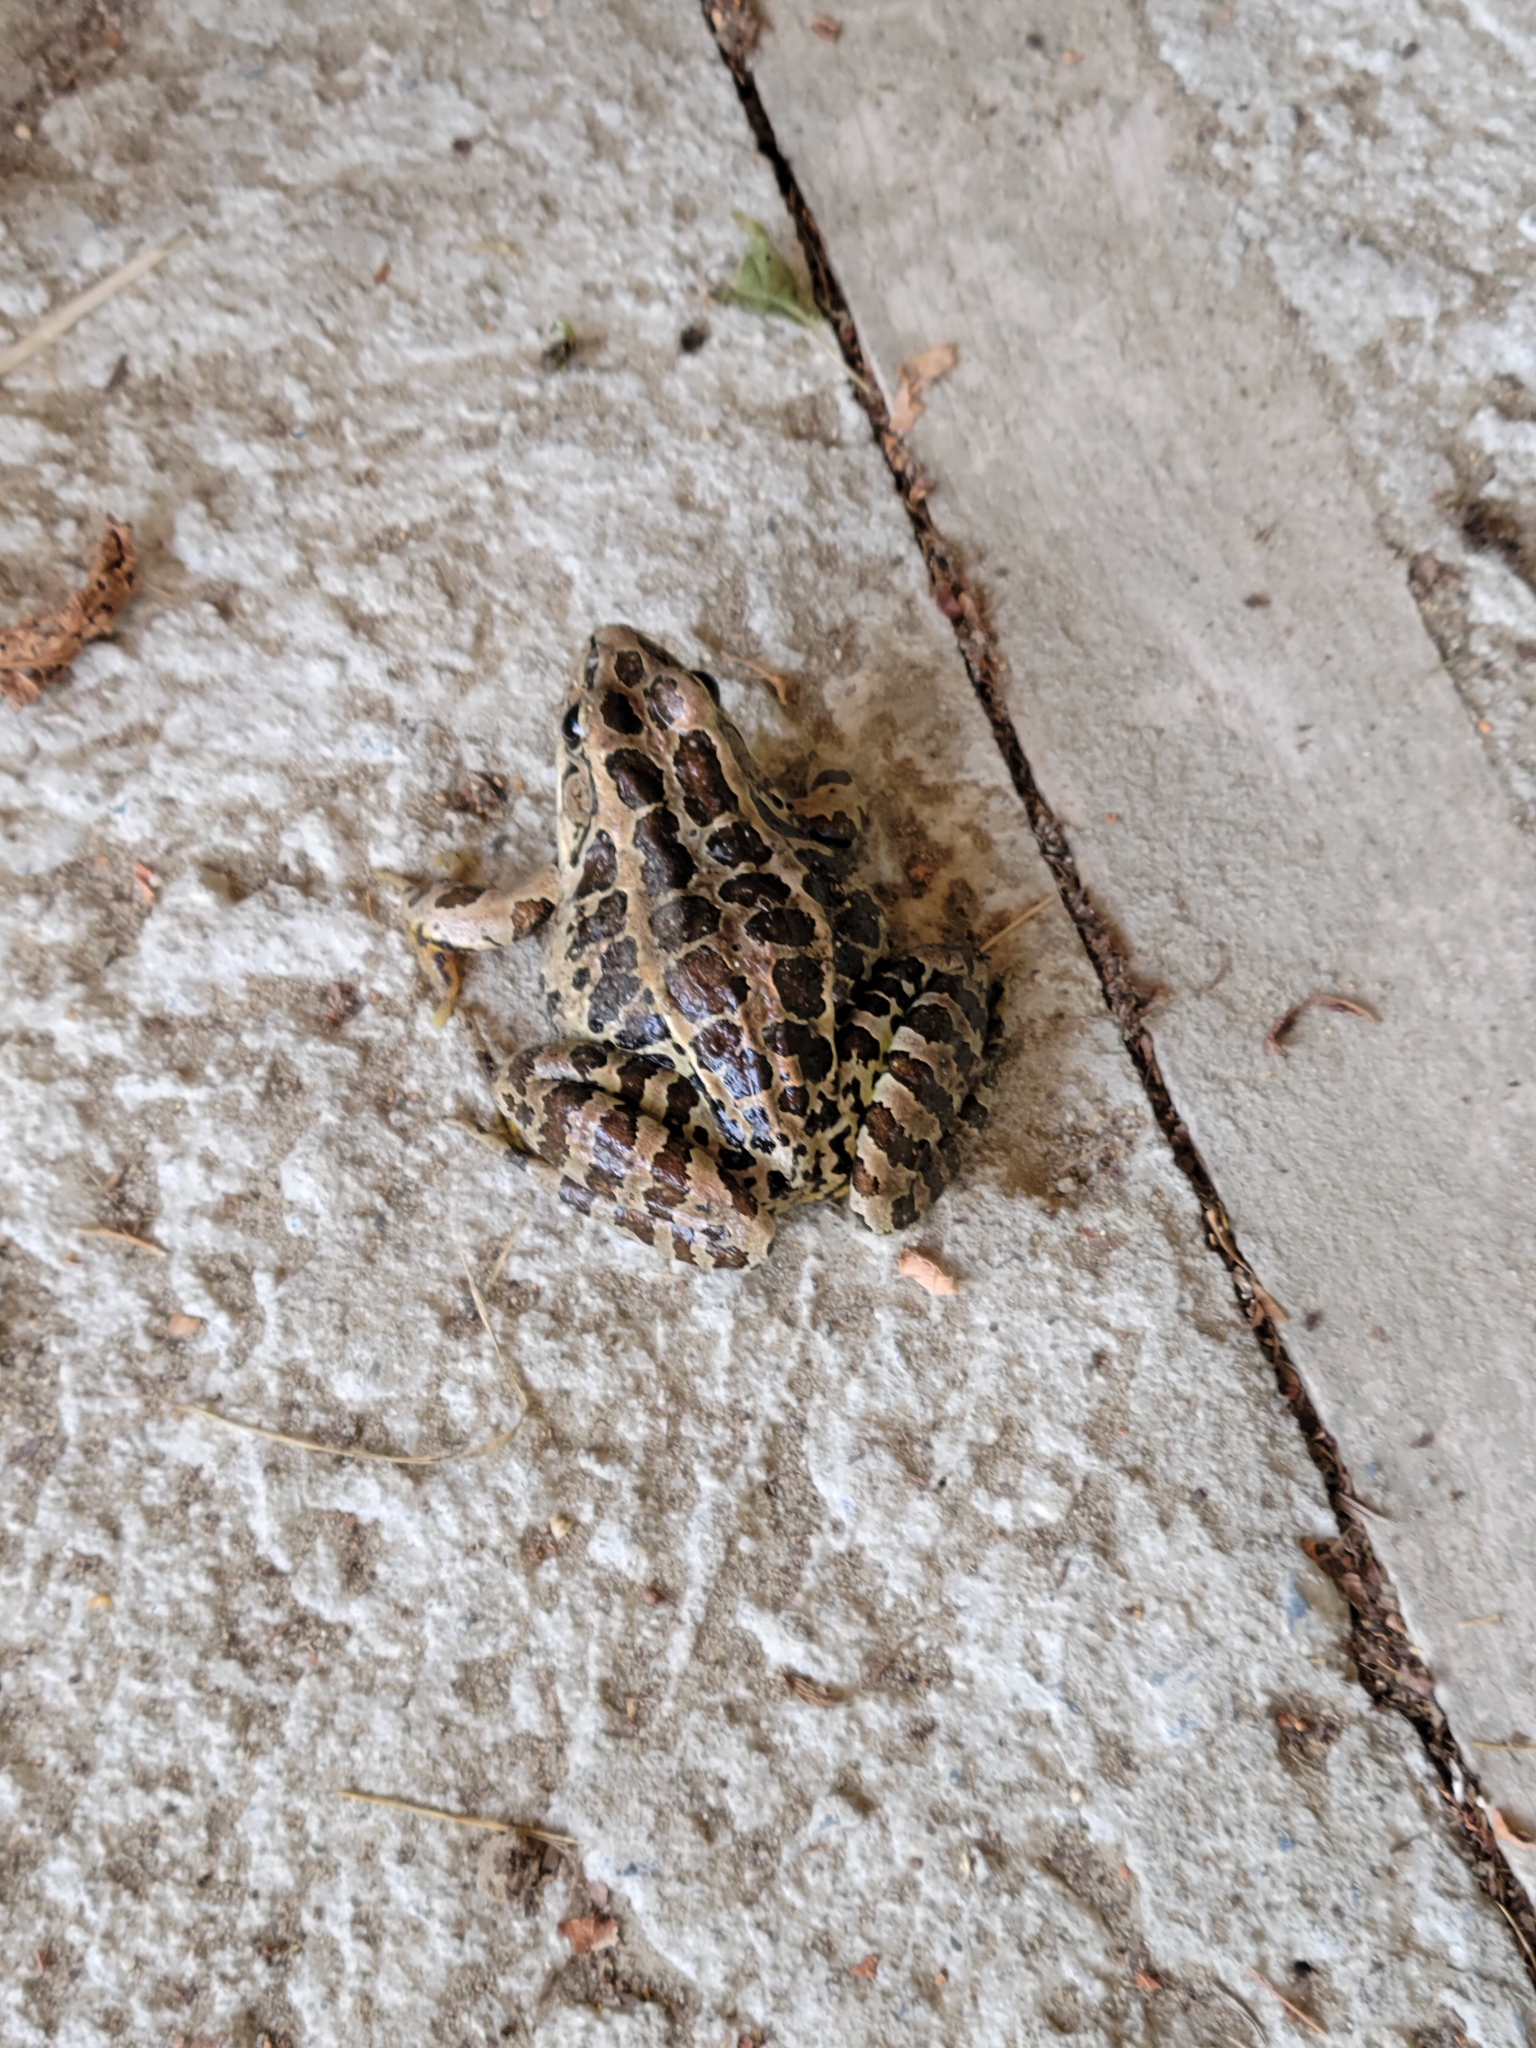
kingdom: Animalia
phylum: Chordata
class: Amphibia
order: Anura
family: Ranidae
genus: Lithobates
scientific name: Lithobates palustris
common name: Pickerel frog
